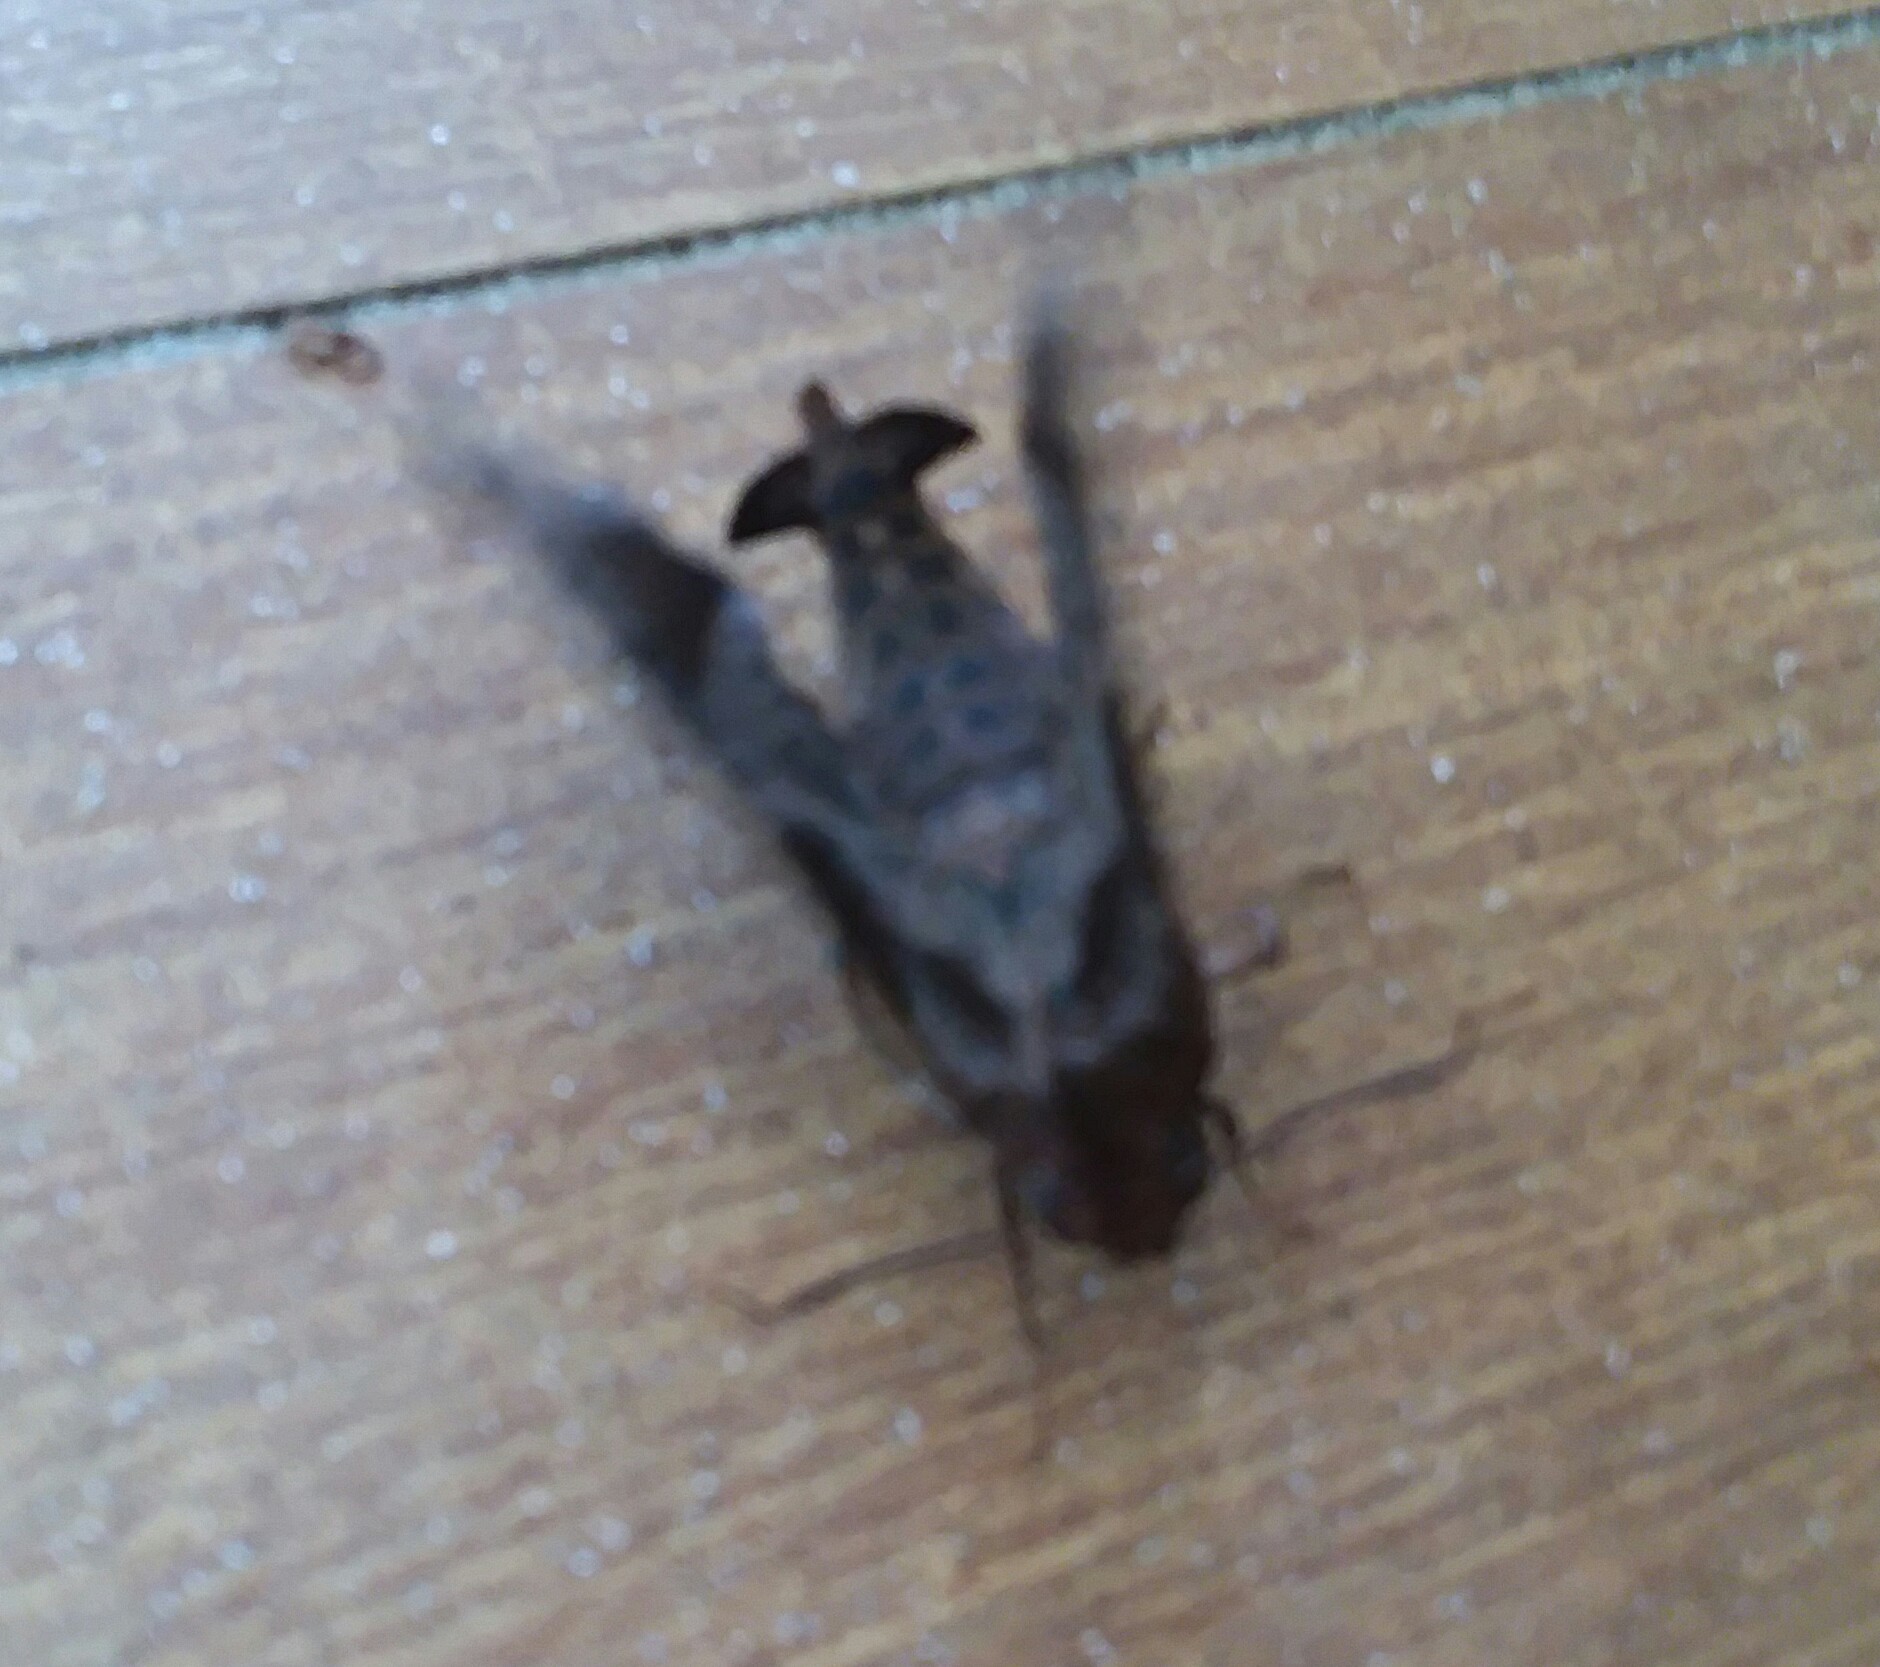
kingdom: Animalia
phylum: Arthropoda
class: Insecta
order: Lepidoptera
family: Sphingidae
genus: Enyo
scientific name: Enyo lugubris
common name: Mournful sphinx
